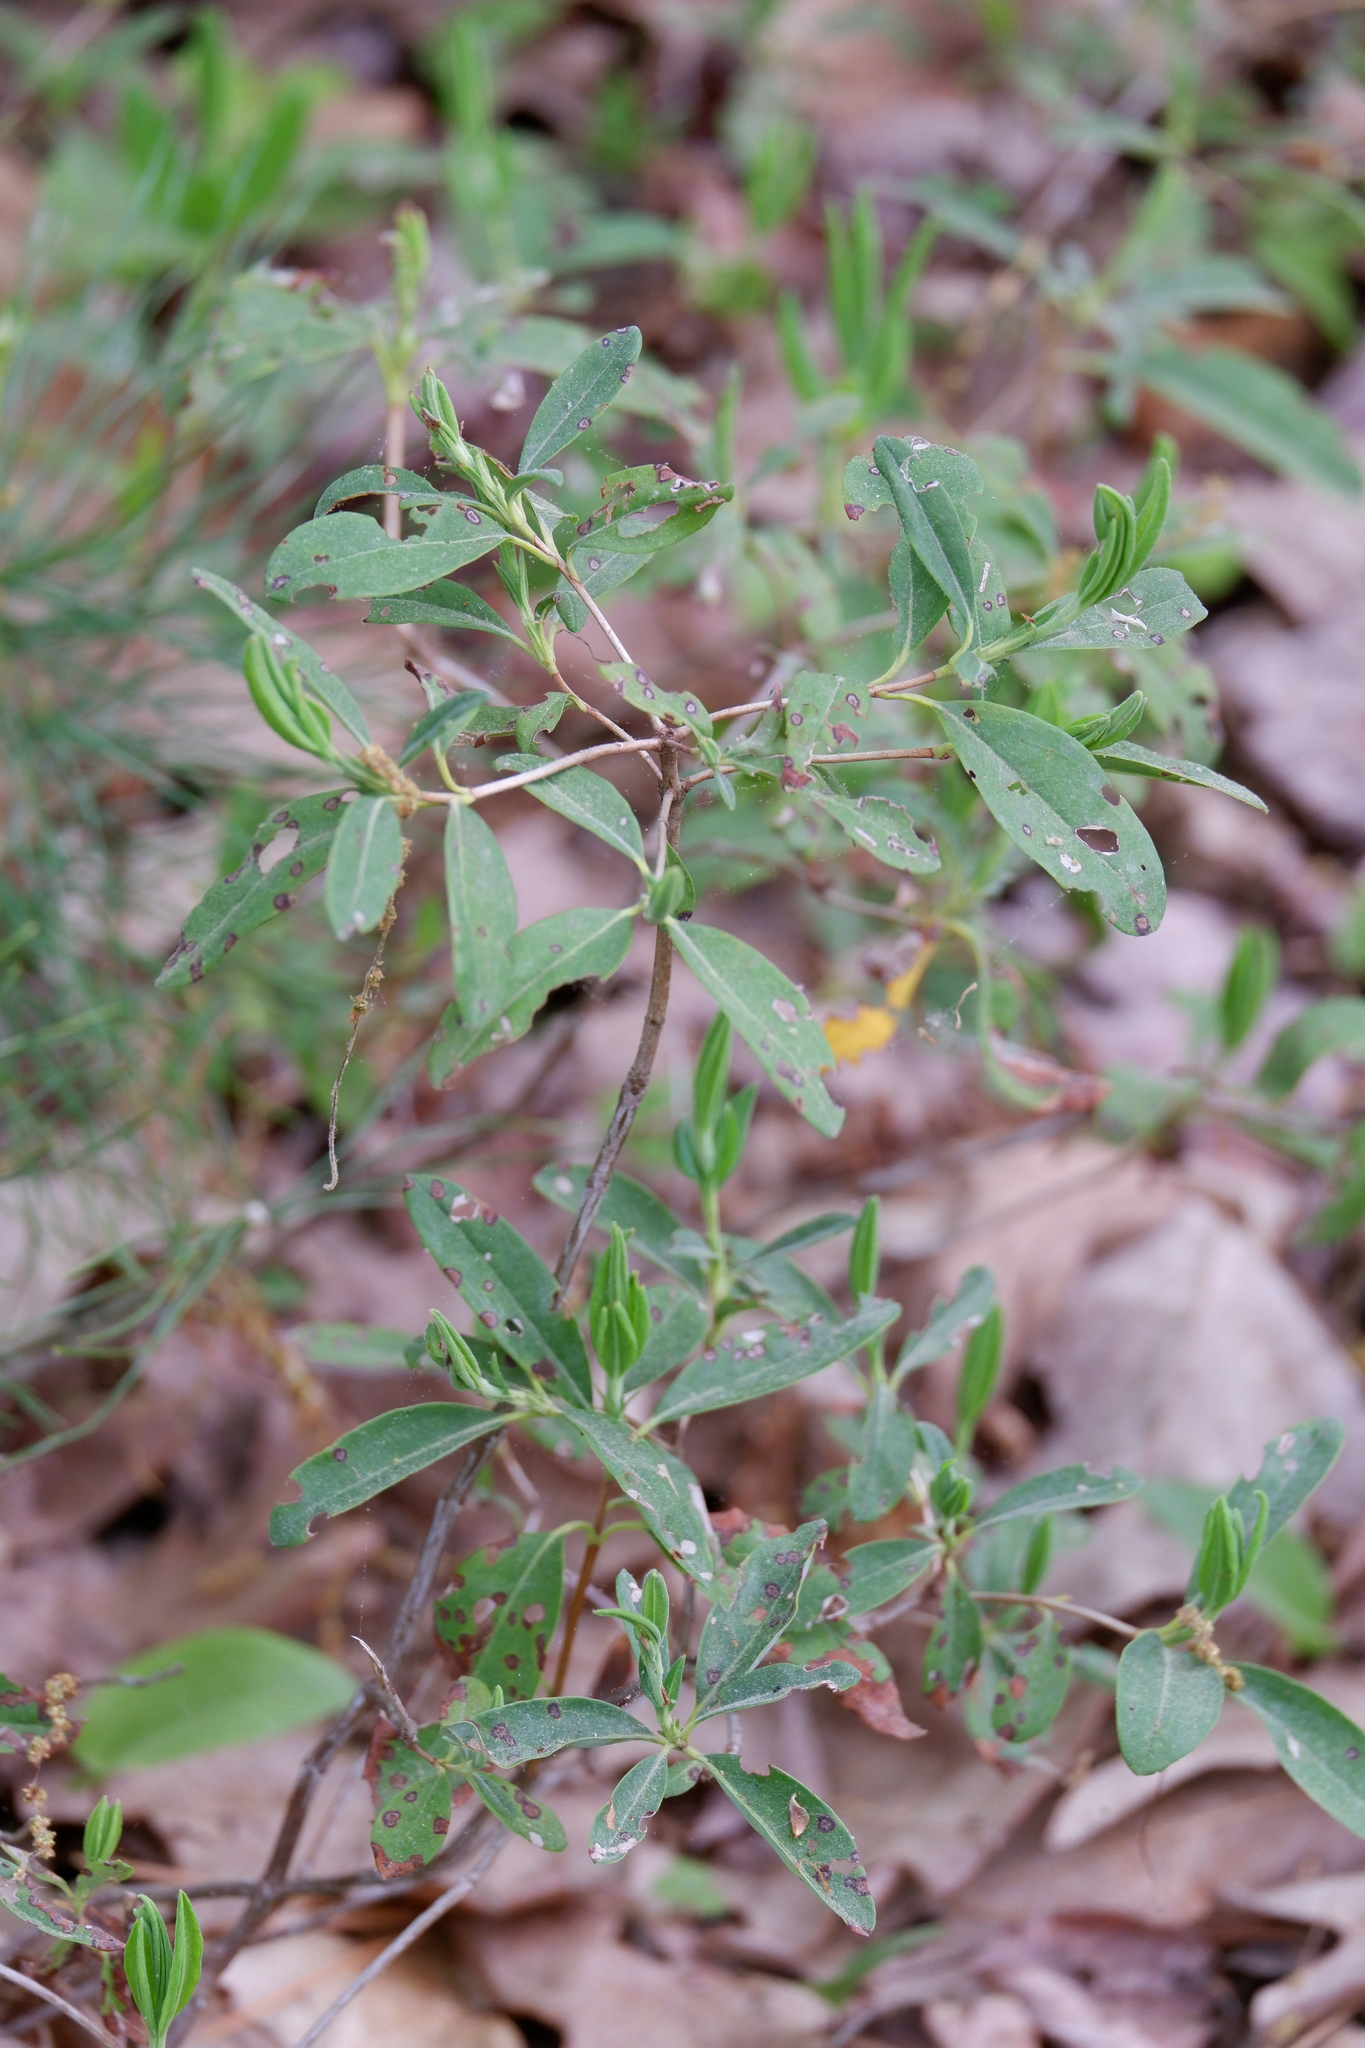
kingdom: Plantae
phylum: Tracheophyta
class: Magnoliopsida
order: Ericales
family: Ericaceae
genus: Kalmia
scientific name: Kalmia angustifolia
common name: Sheep-laurel
